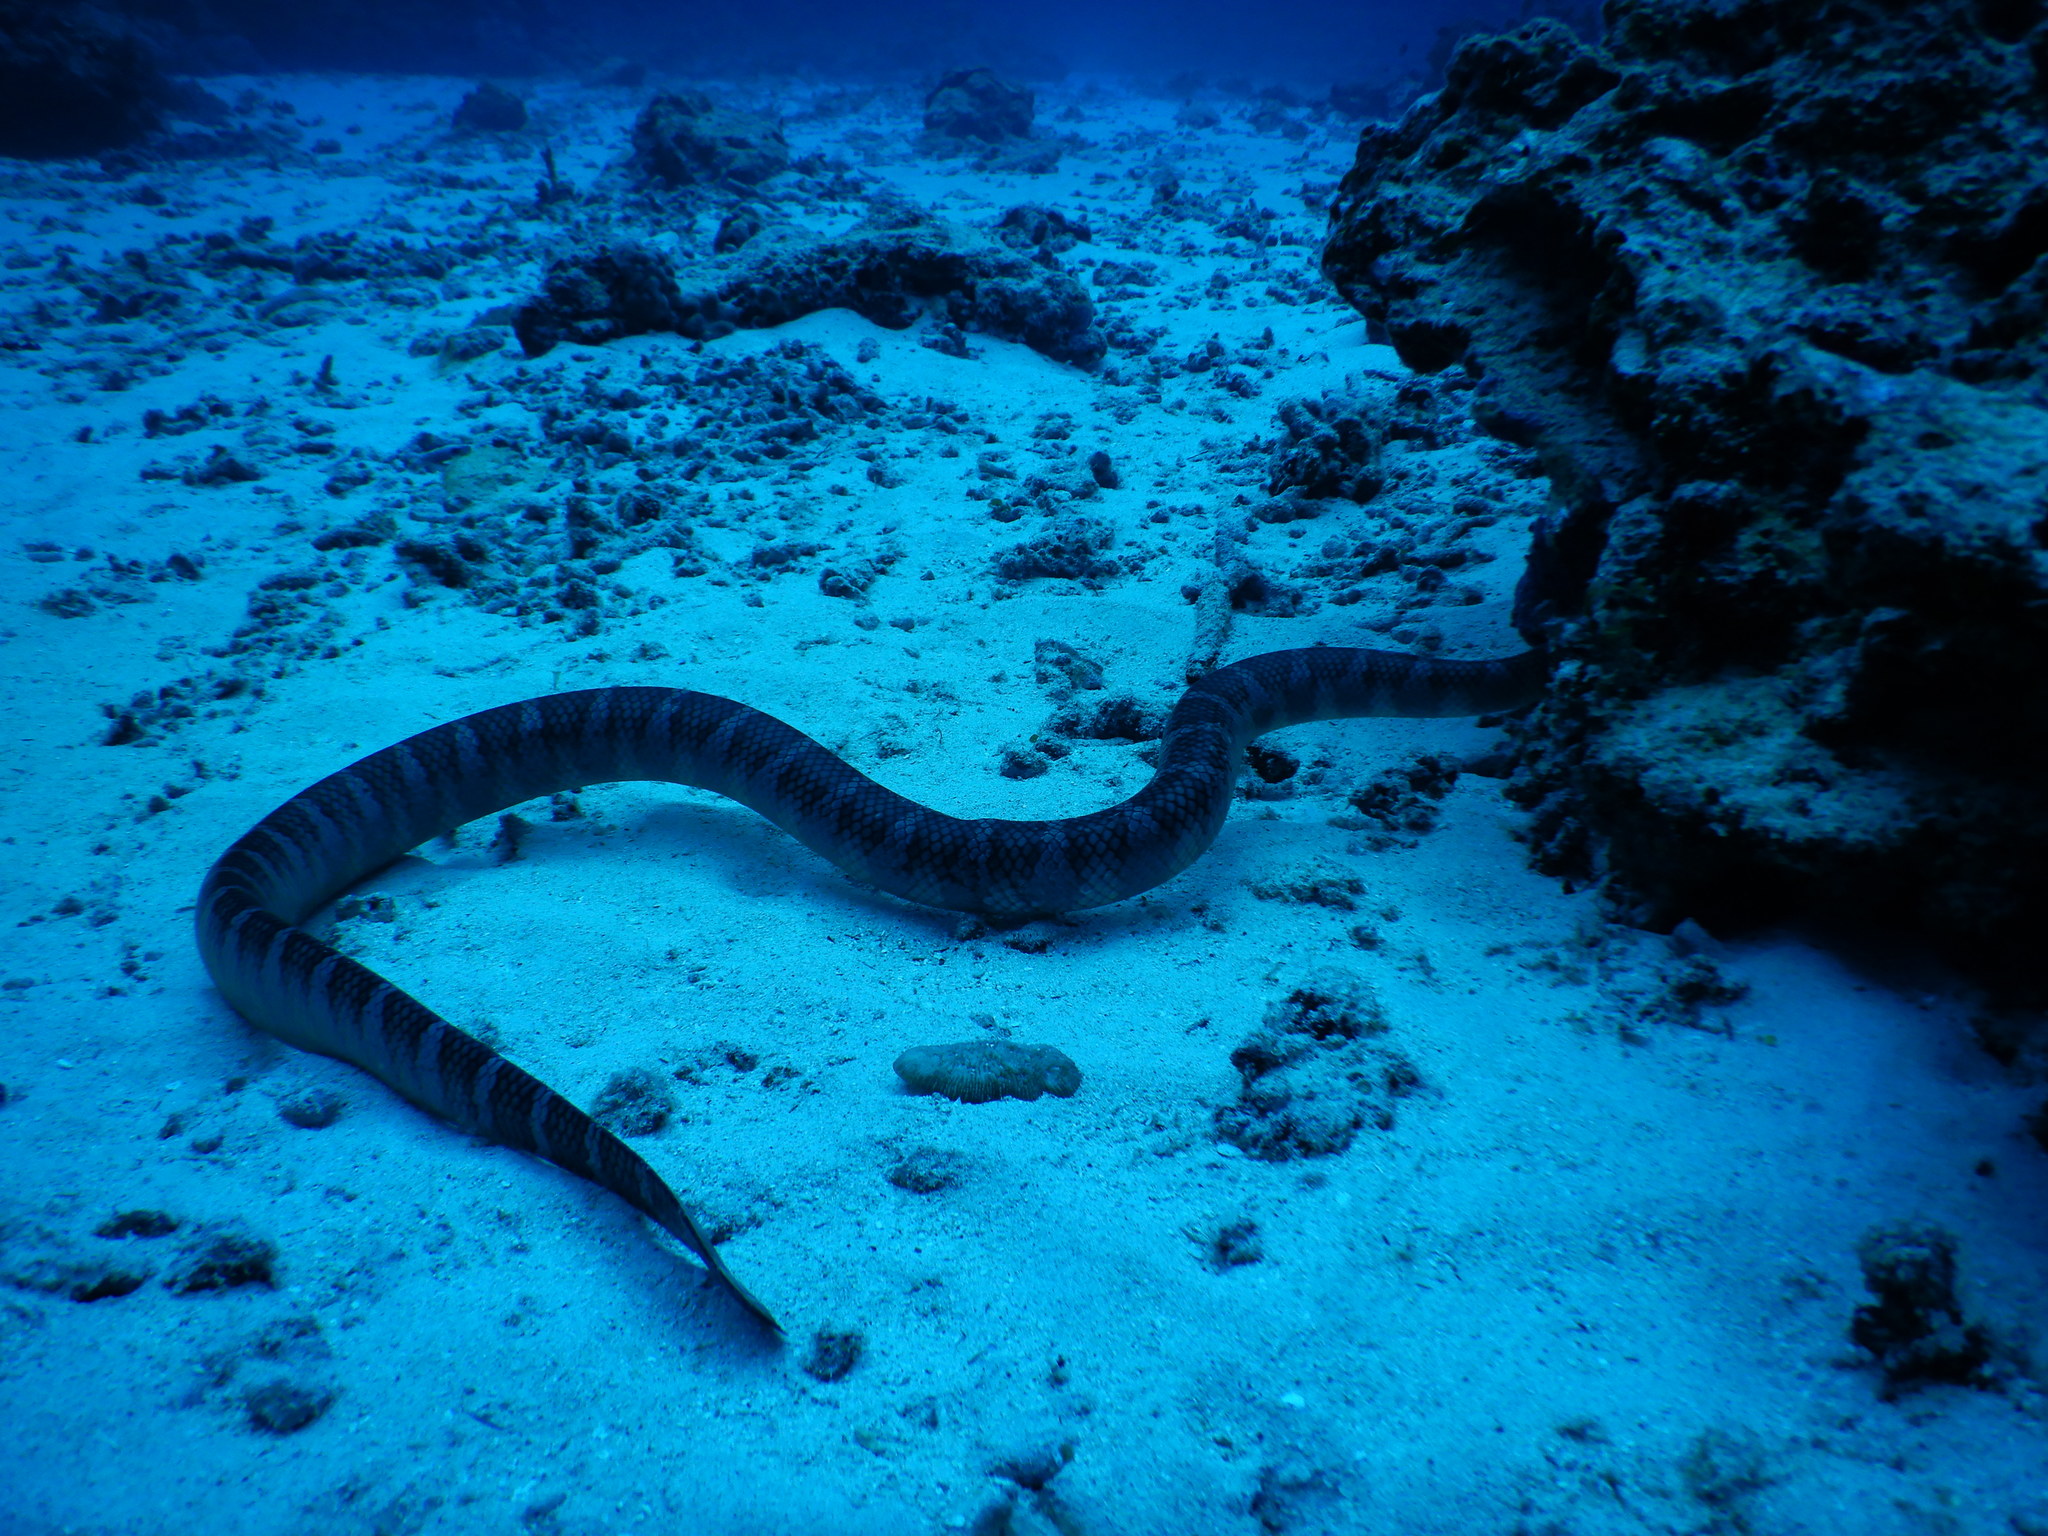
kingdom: Animalia
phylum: Chordata
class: Squamata
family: Elapidae
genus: Laticauda
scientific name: Laticauda semifasciata
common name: Chinese sea snake
